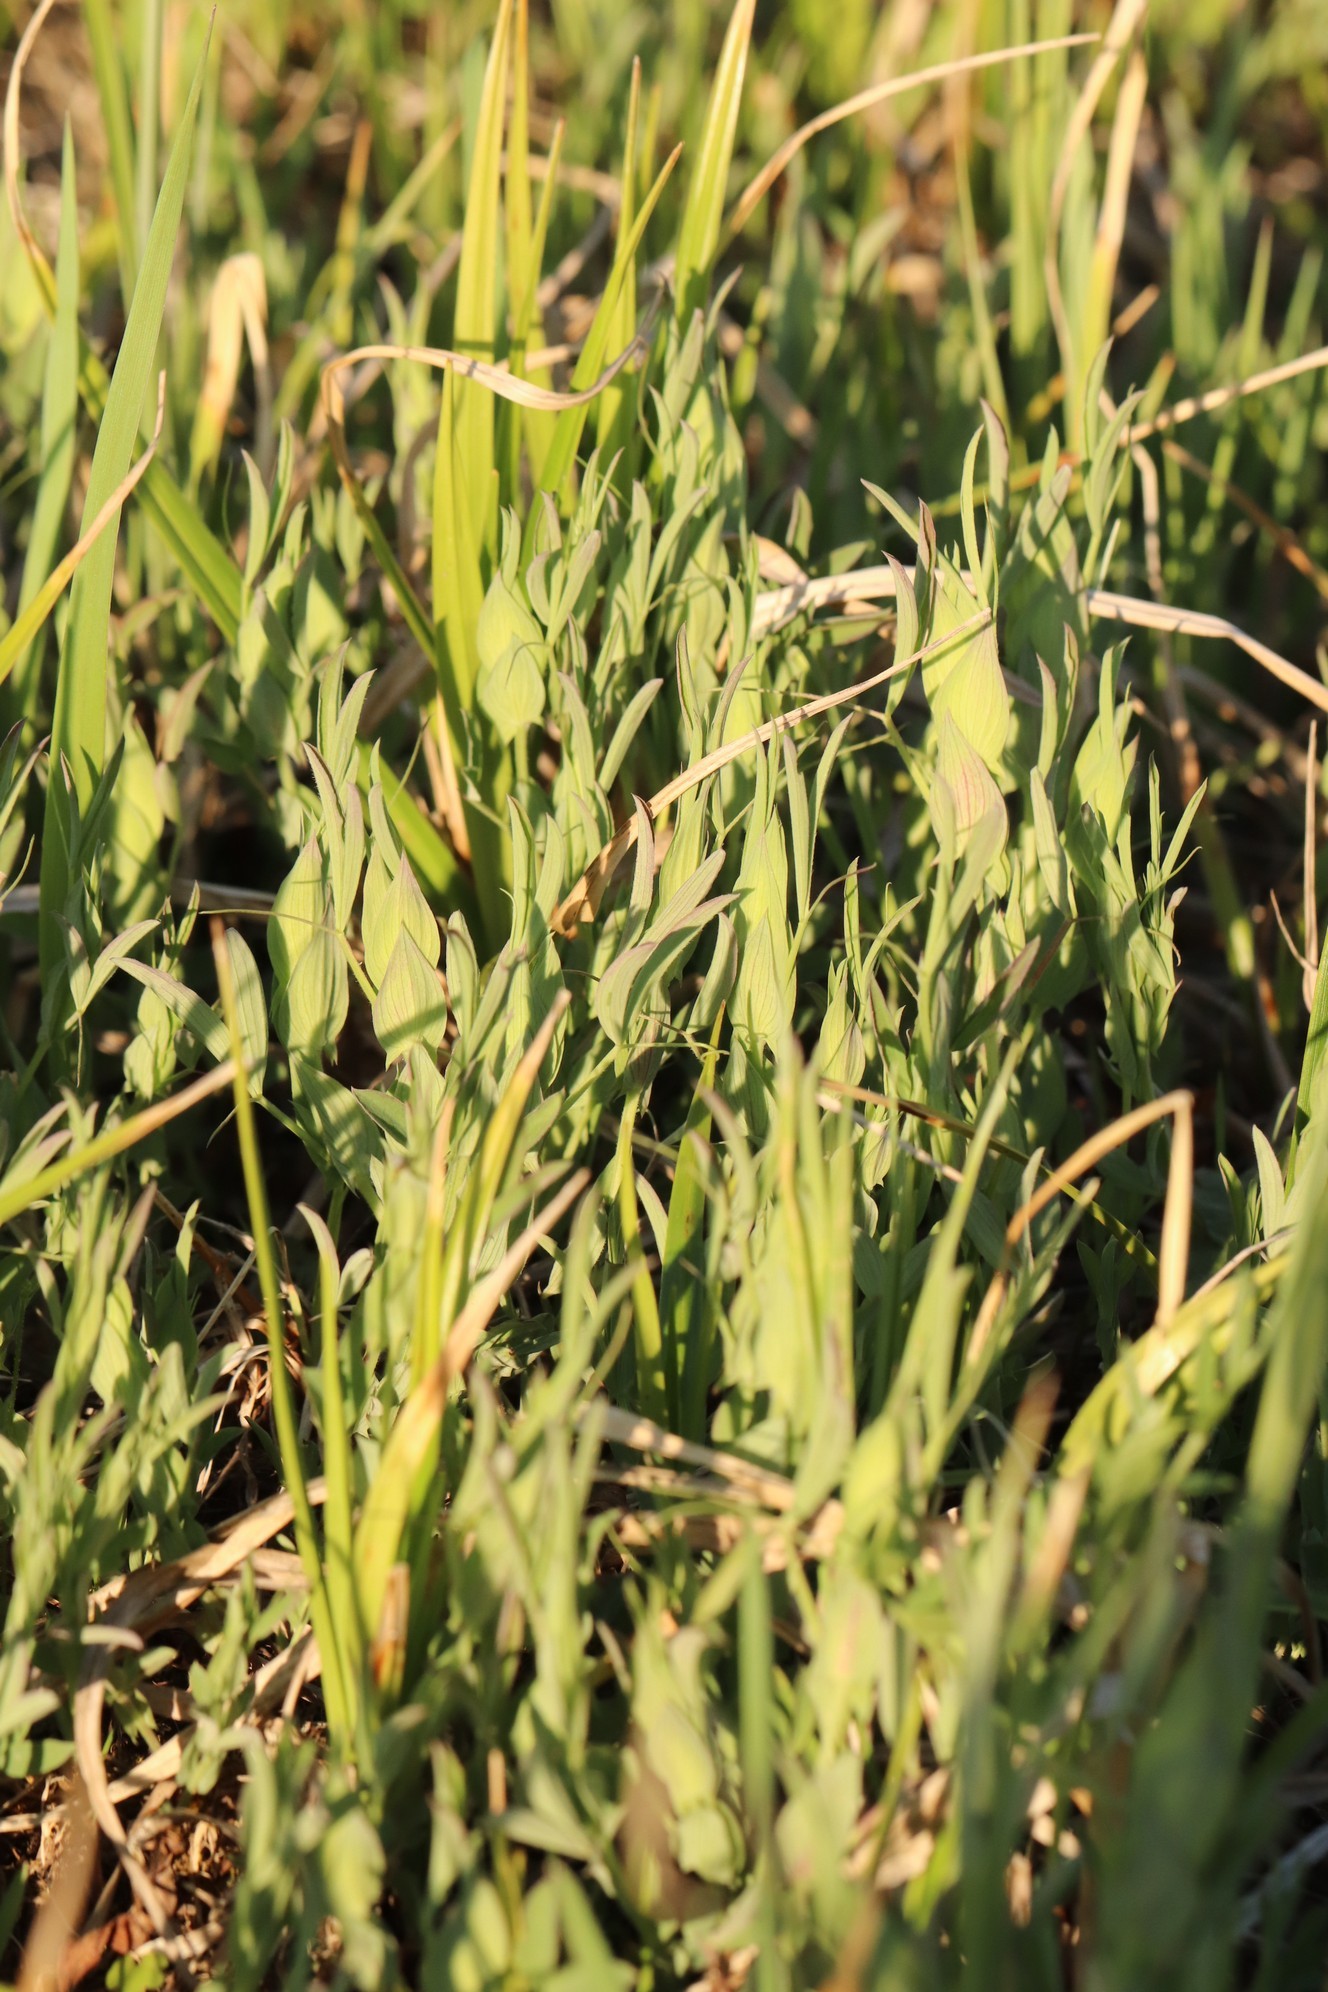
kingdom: Plantae
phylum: Tracheophyta
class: Magnoliopsida
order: Fabales
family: Fabaceae
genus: Lathyrus
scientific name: Lathyrus pratensis
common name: Meadow vetchling
